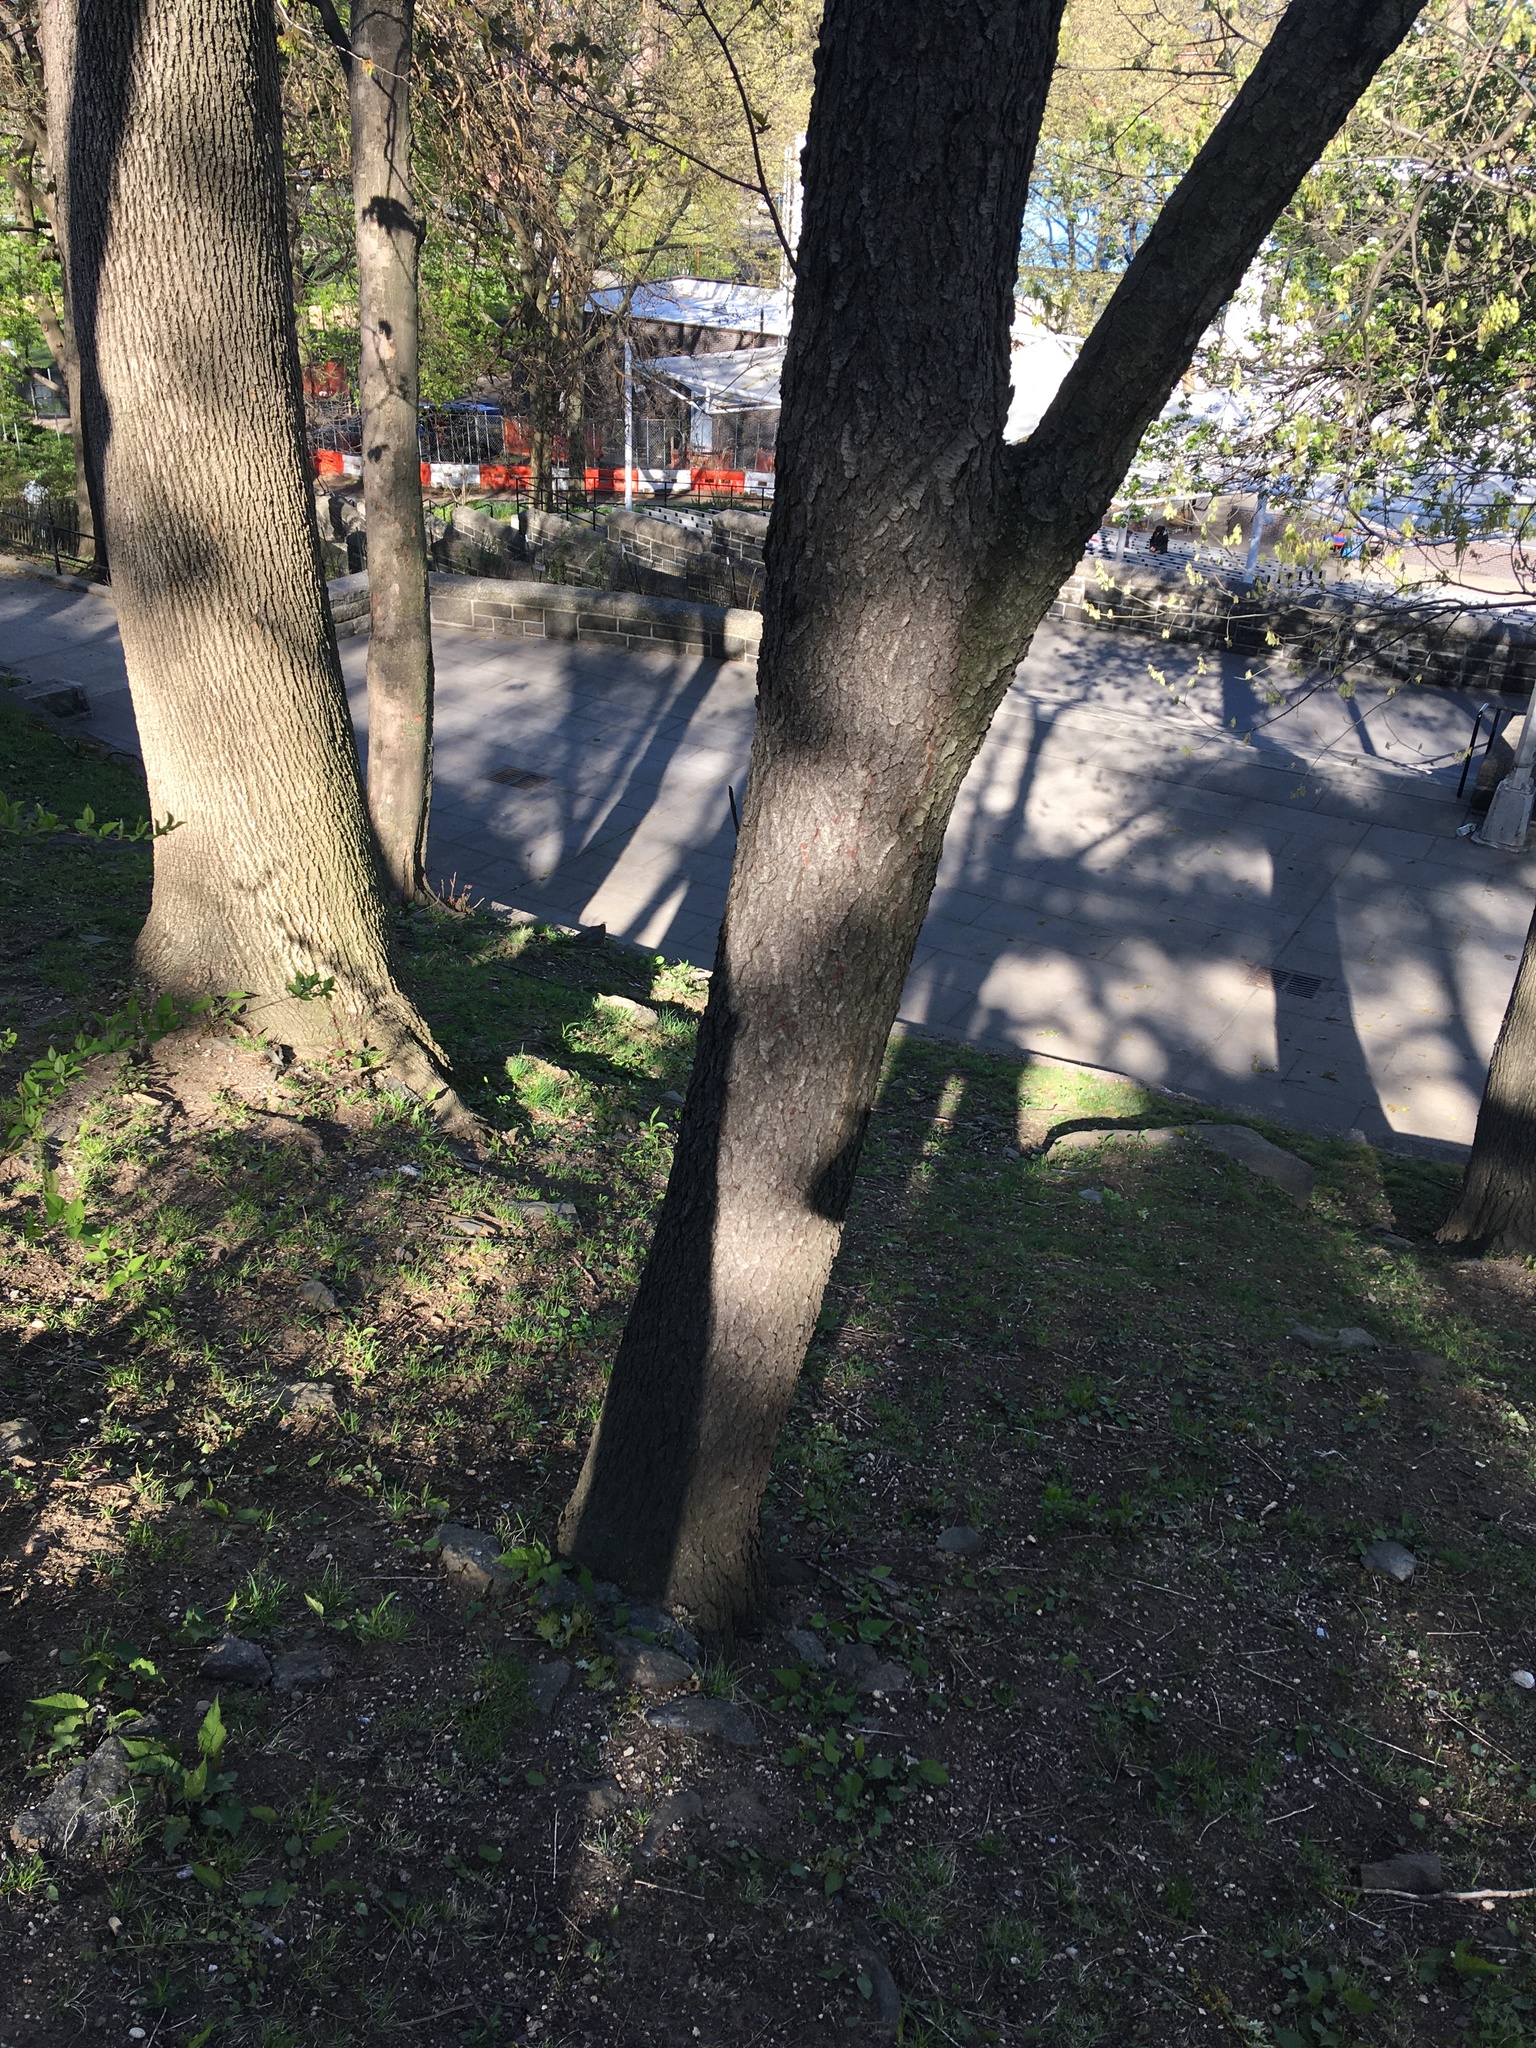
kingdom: Plantae
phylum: Tracheophyta
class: Magnoliopsida
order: Rosales
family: Rosaceae
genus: Prunus
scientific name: Prunus serotina
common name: Black cherry
